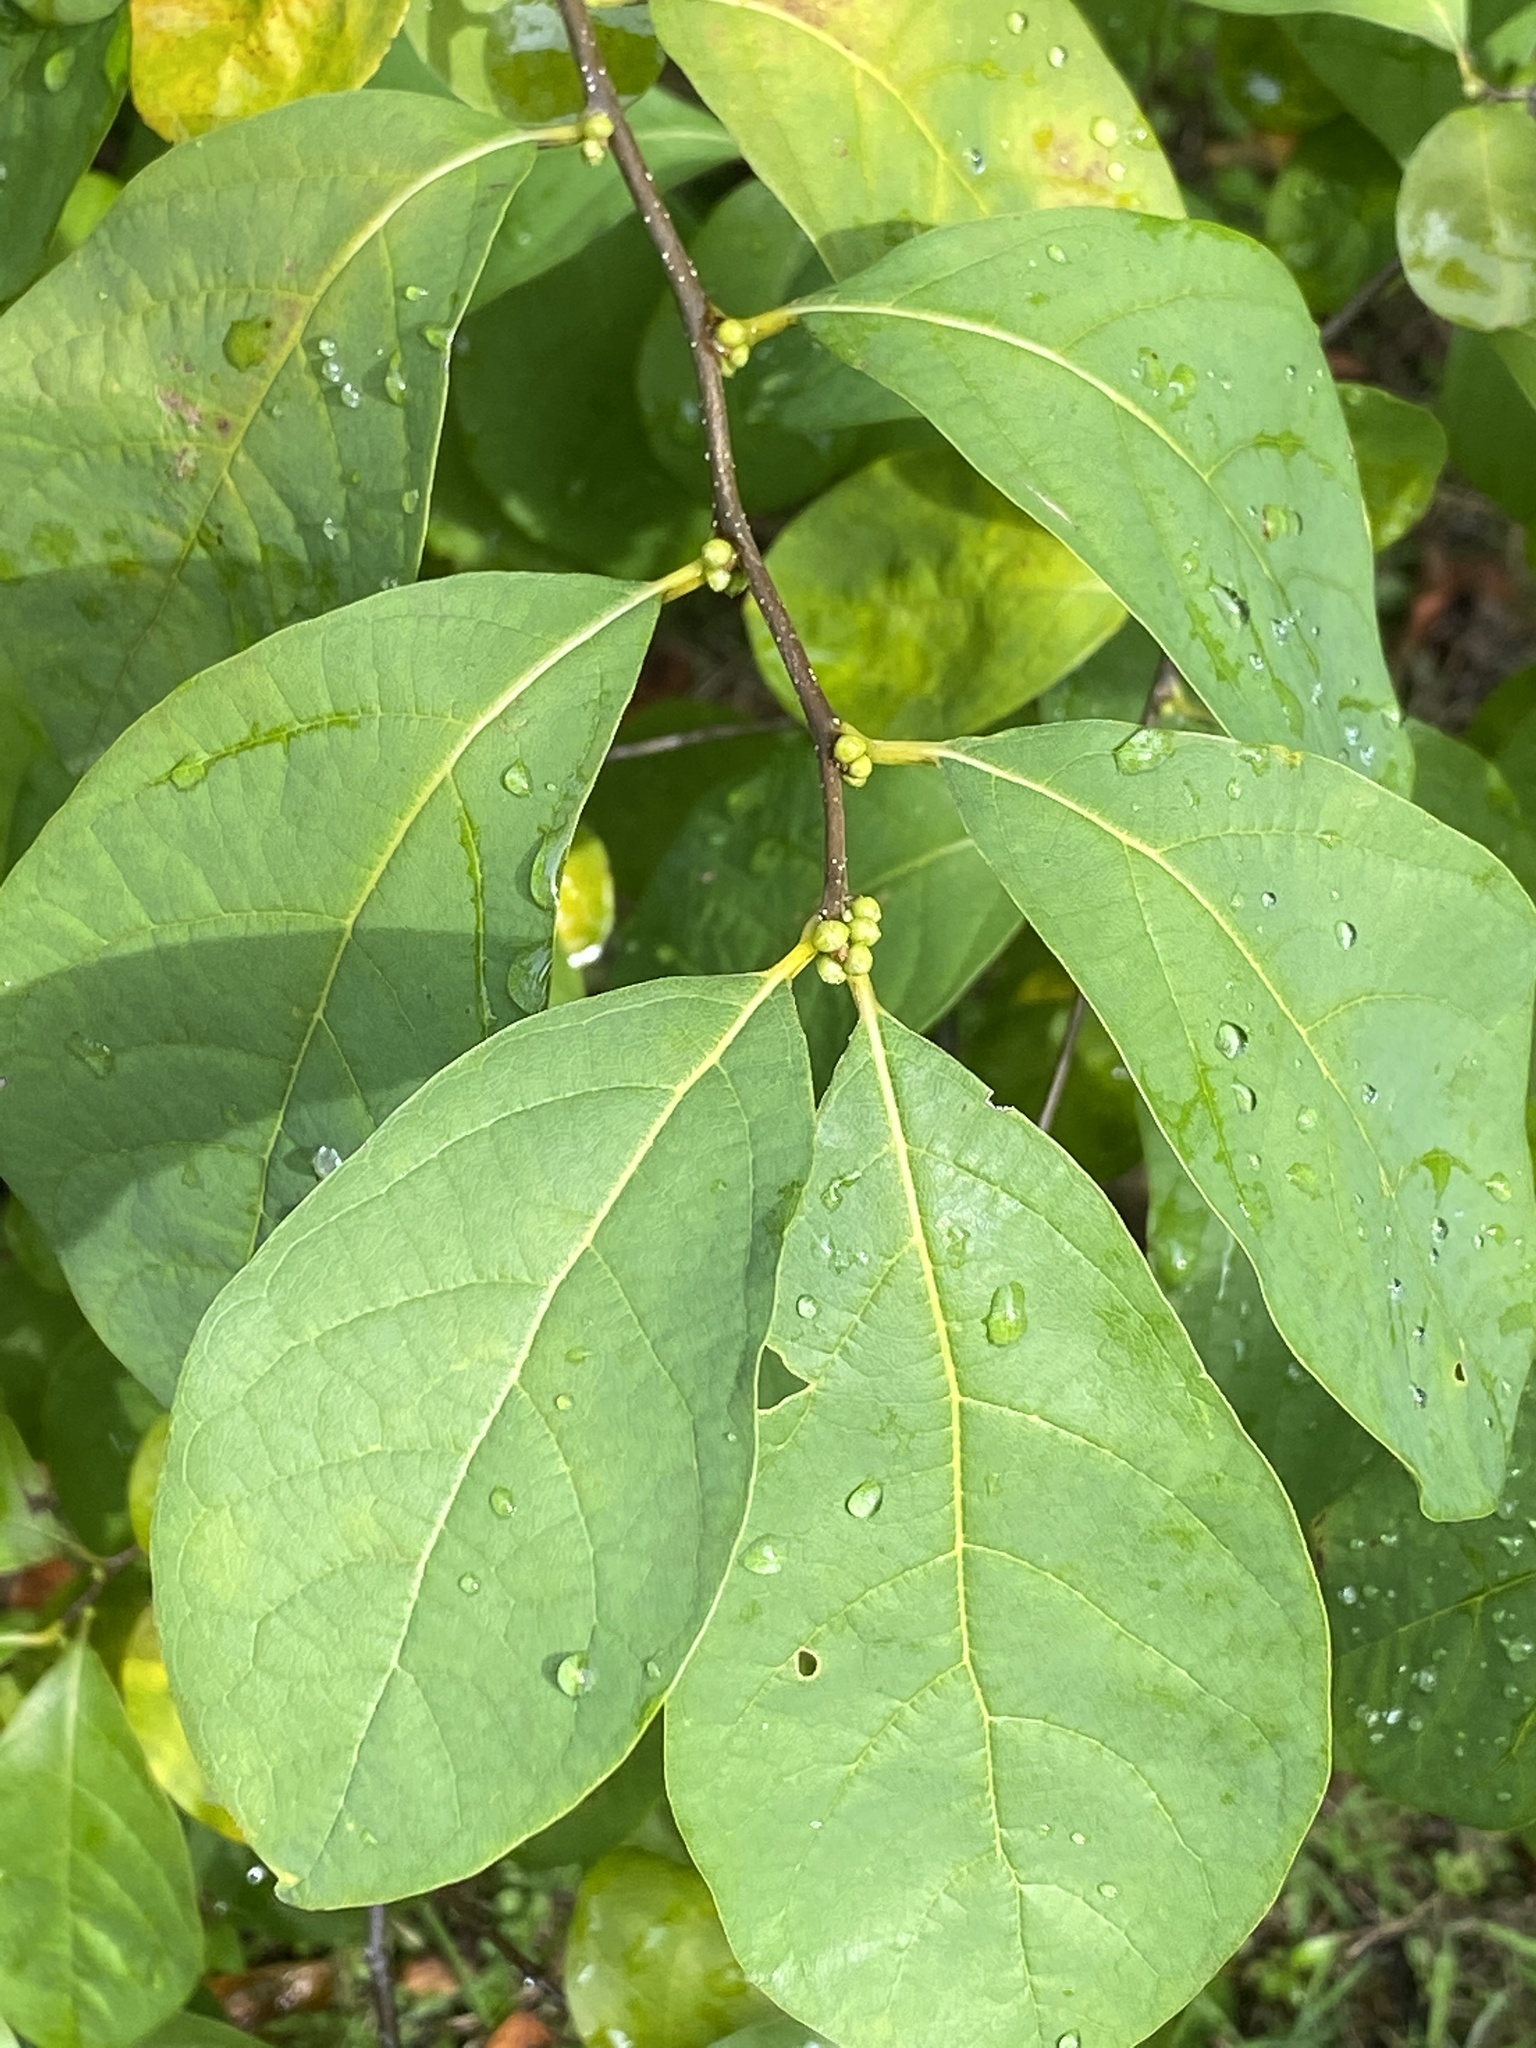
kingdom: Plantae
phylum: Tracheophyta
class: Magnoliopsida
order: Laurales
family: Lauraceae
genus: Lindera
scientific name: Lindera benzoin
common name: Spicebush
